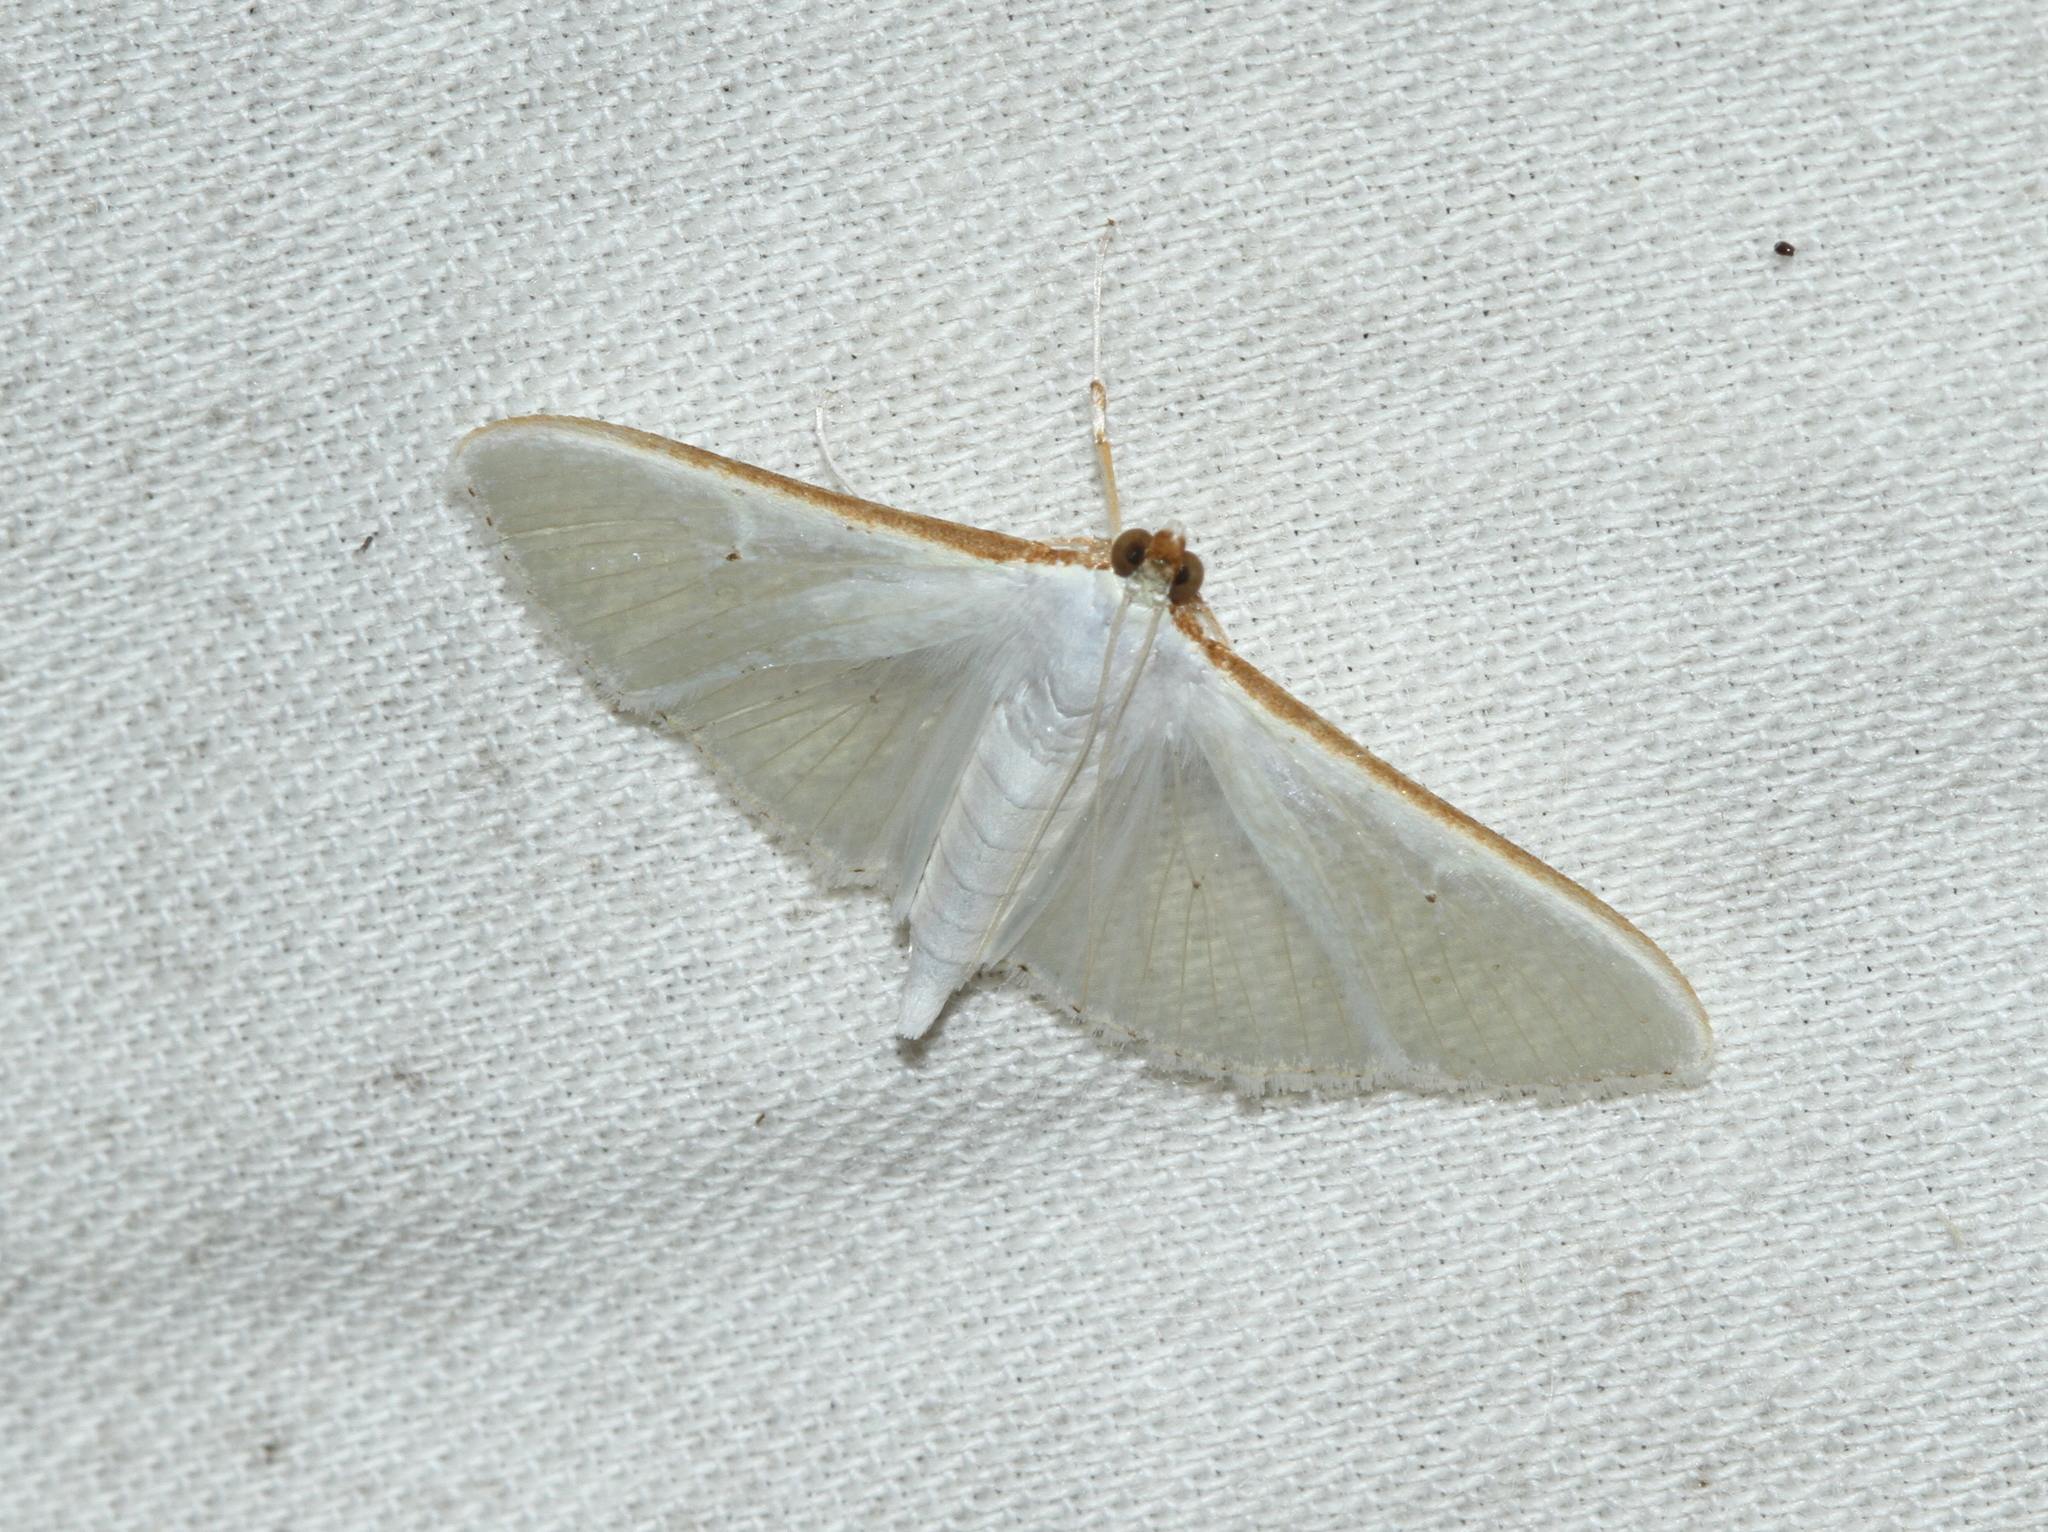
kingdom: Animalia
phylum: Arthropoda
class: Insecta
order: Lepidoptera
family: Crambidae
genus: Palpita
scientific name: Palpita vitrealis
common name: Olive-tree pearl
